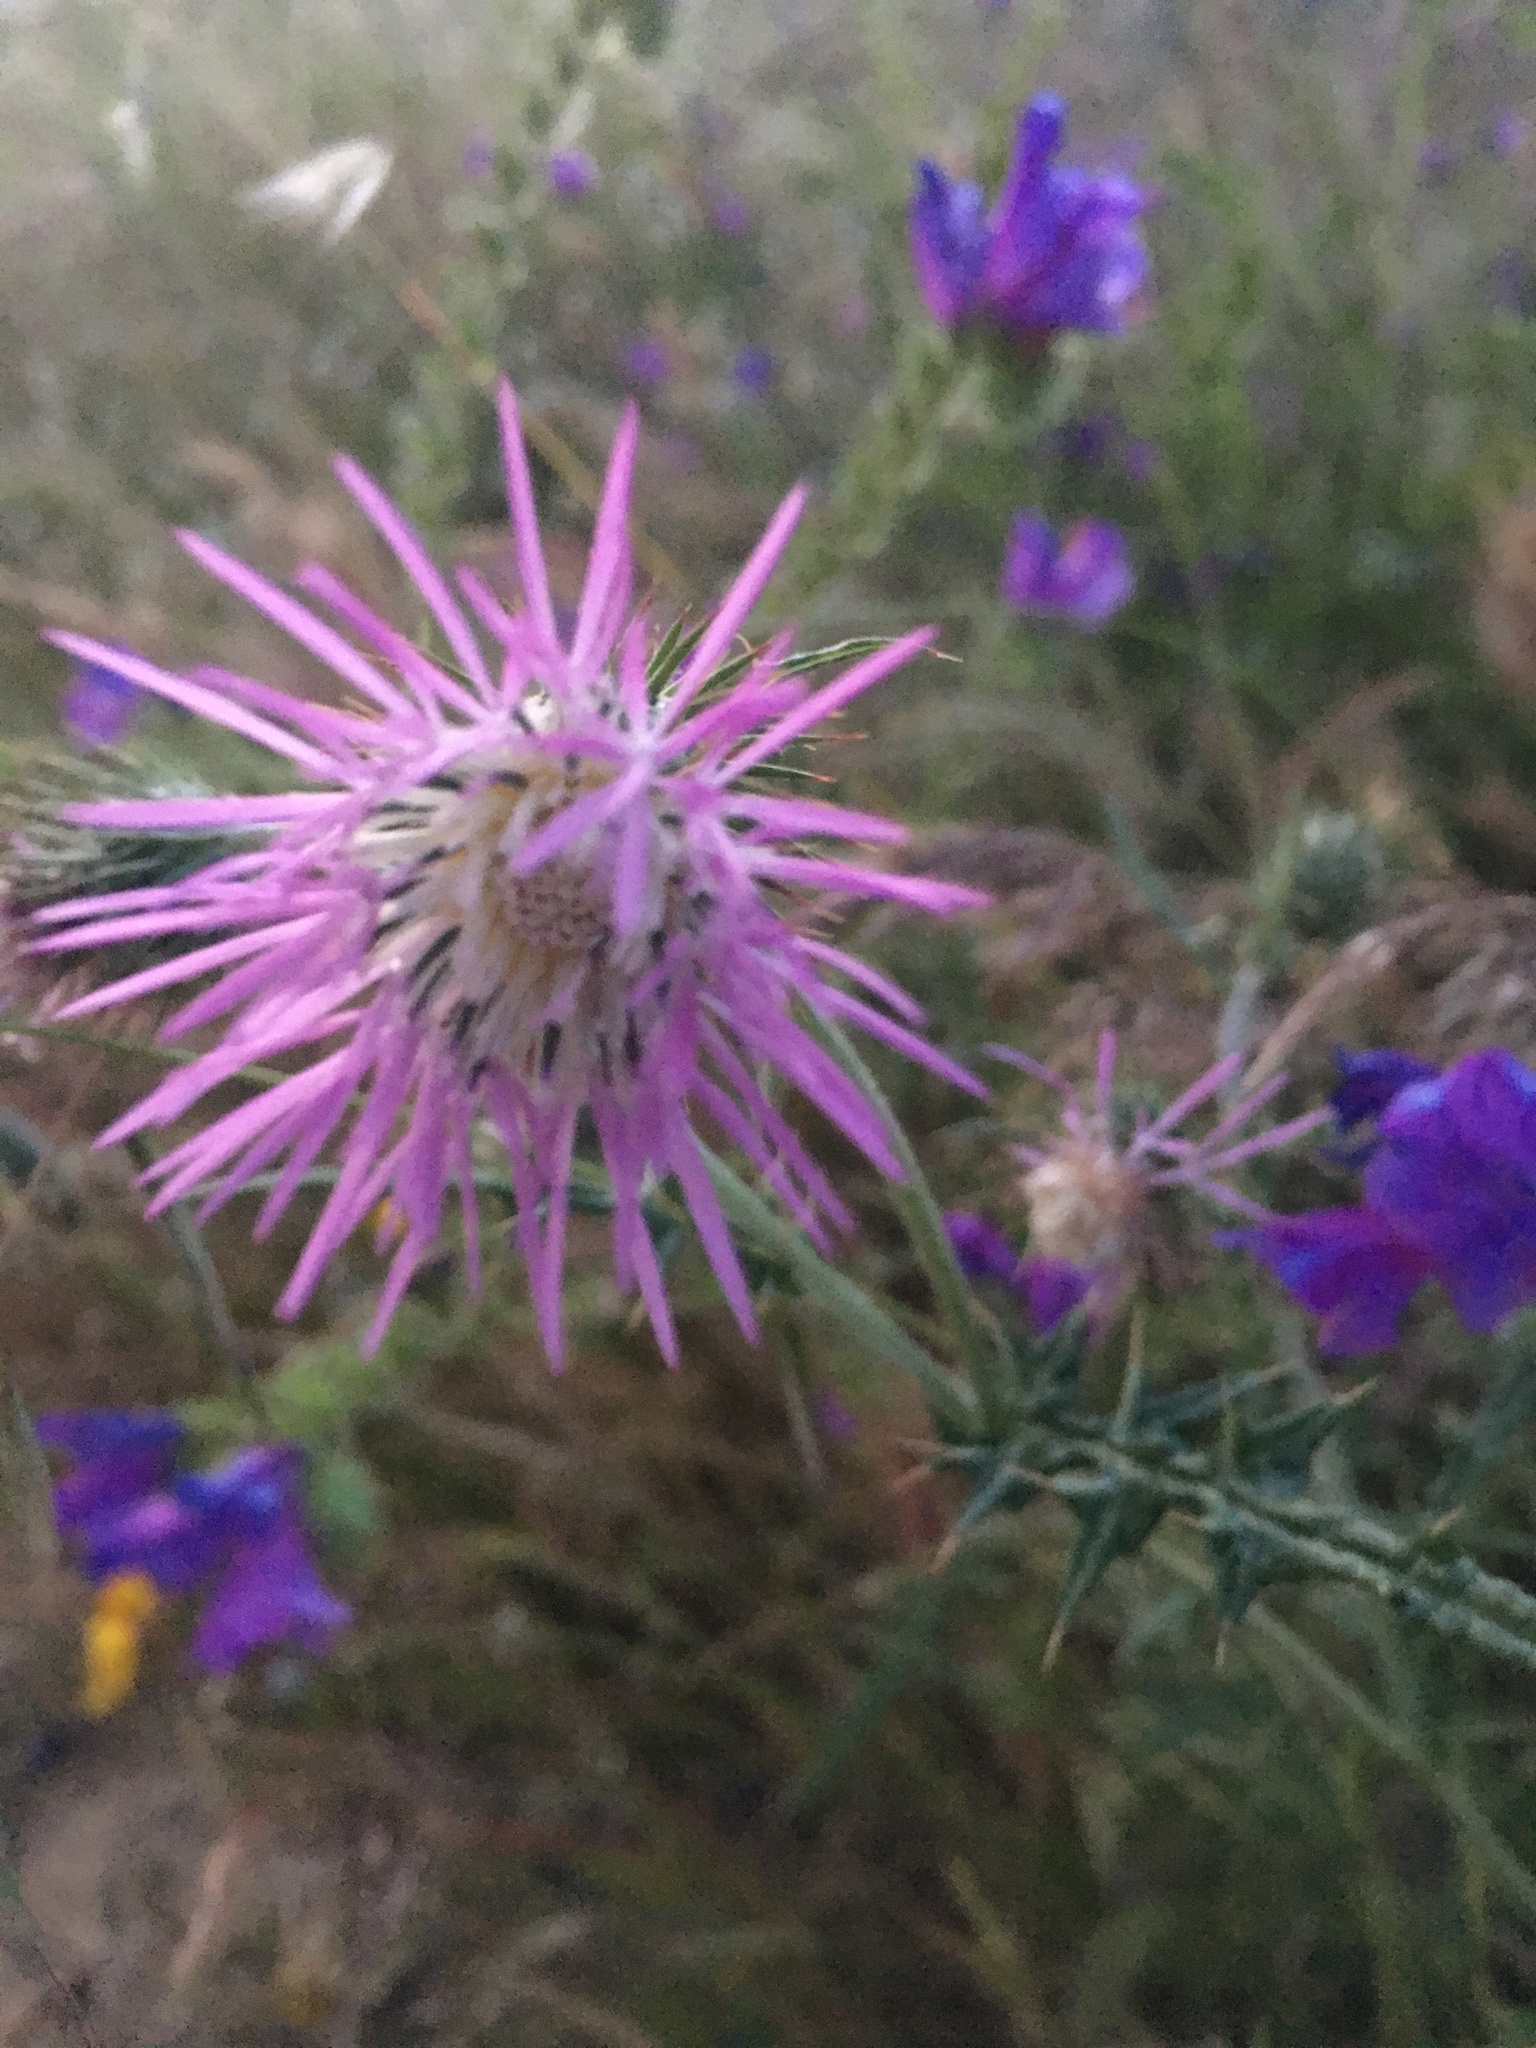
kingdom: Plantae
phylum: Tracheophyta
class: Magnoliopsida
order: Asterales
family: Asteraceae
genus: Galactites
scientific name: Galactites tomentosa
